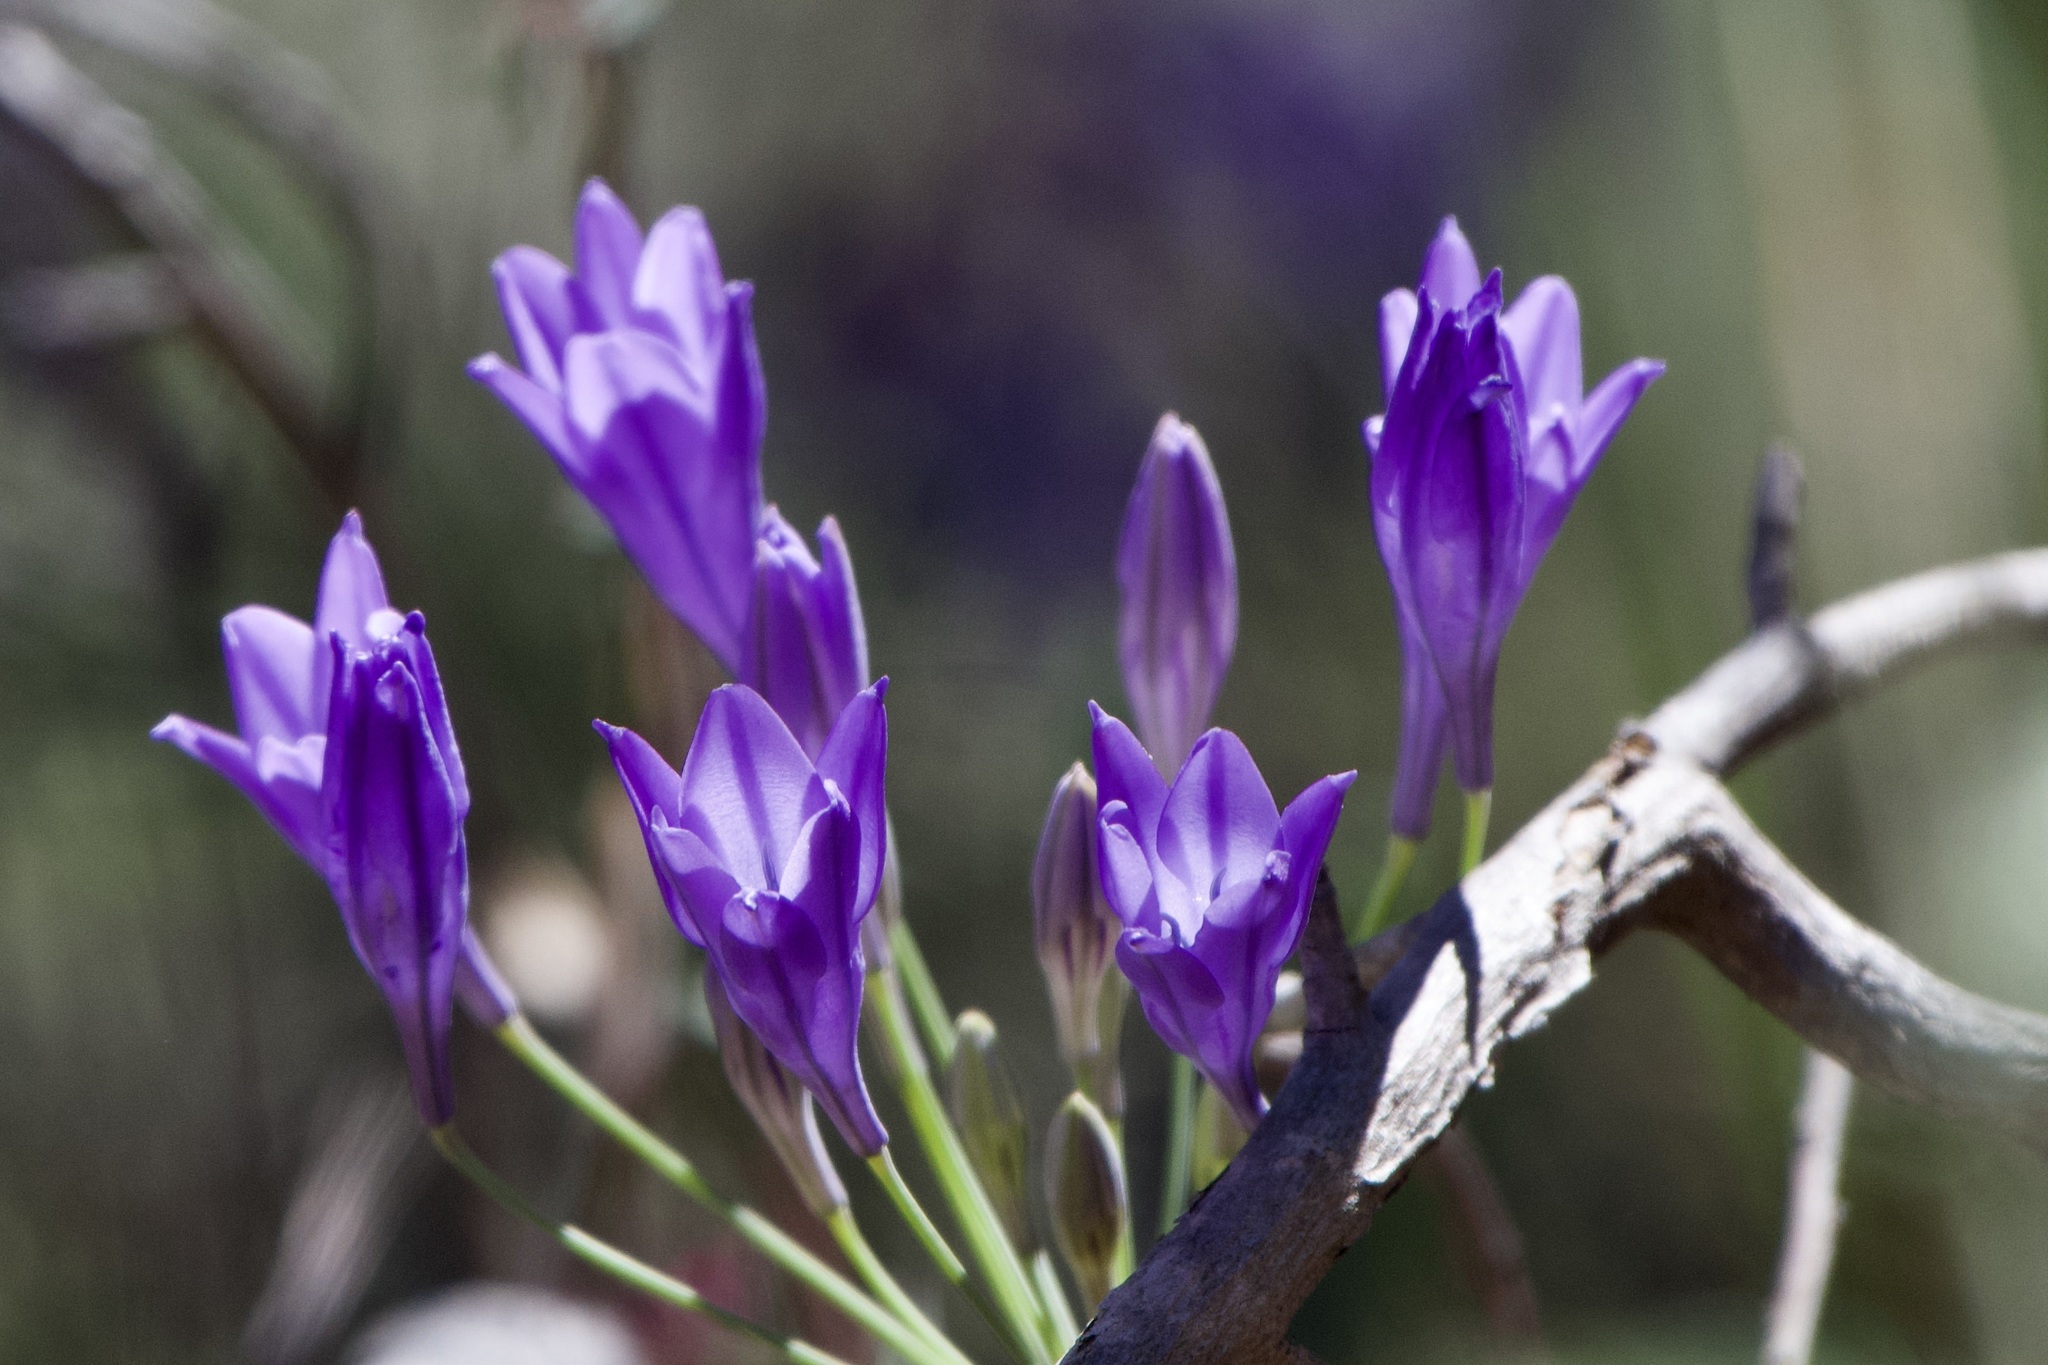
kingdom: Plantae
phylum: Tracheophyta
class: Liliopsida
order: Asparagales
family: Asparagaceae
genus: Triteleia
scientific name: Triteleia laxa
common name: Triplet-lily
